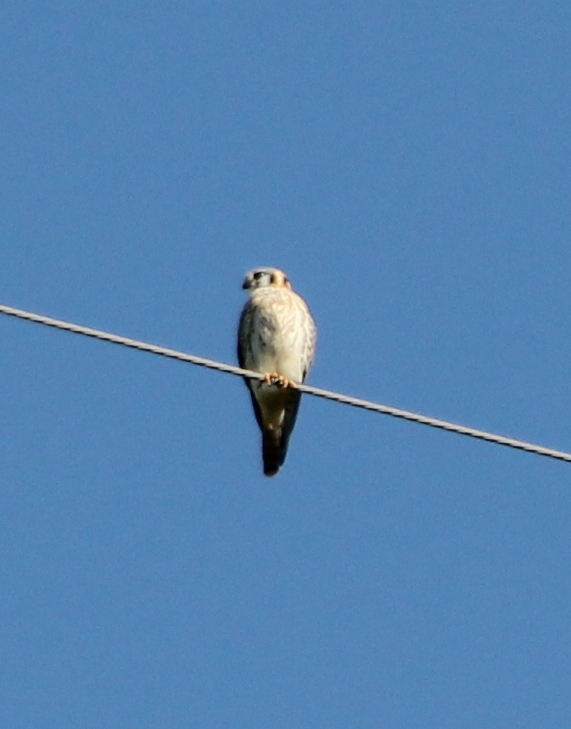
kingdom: Animalia
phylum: Chordata
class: Aves
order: Falconiformes
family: Falconidae
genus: Falco
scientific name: Falco sparverius
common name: American kestrel
